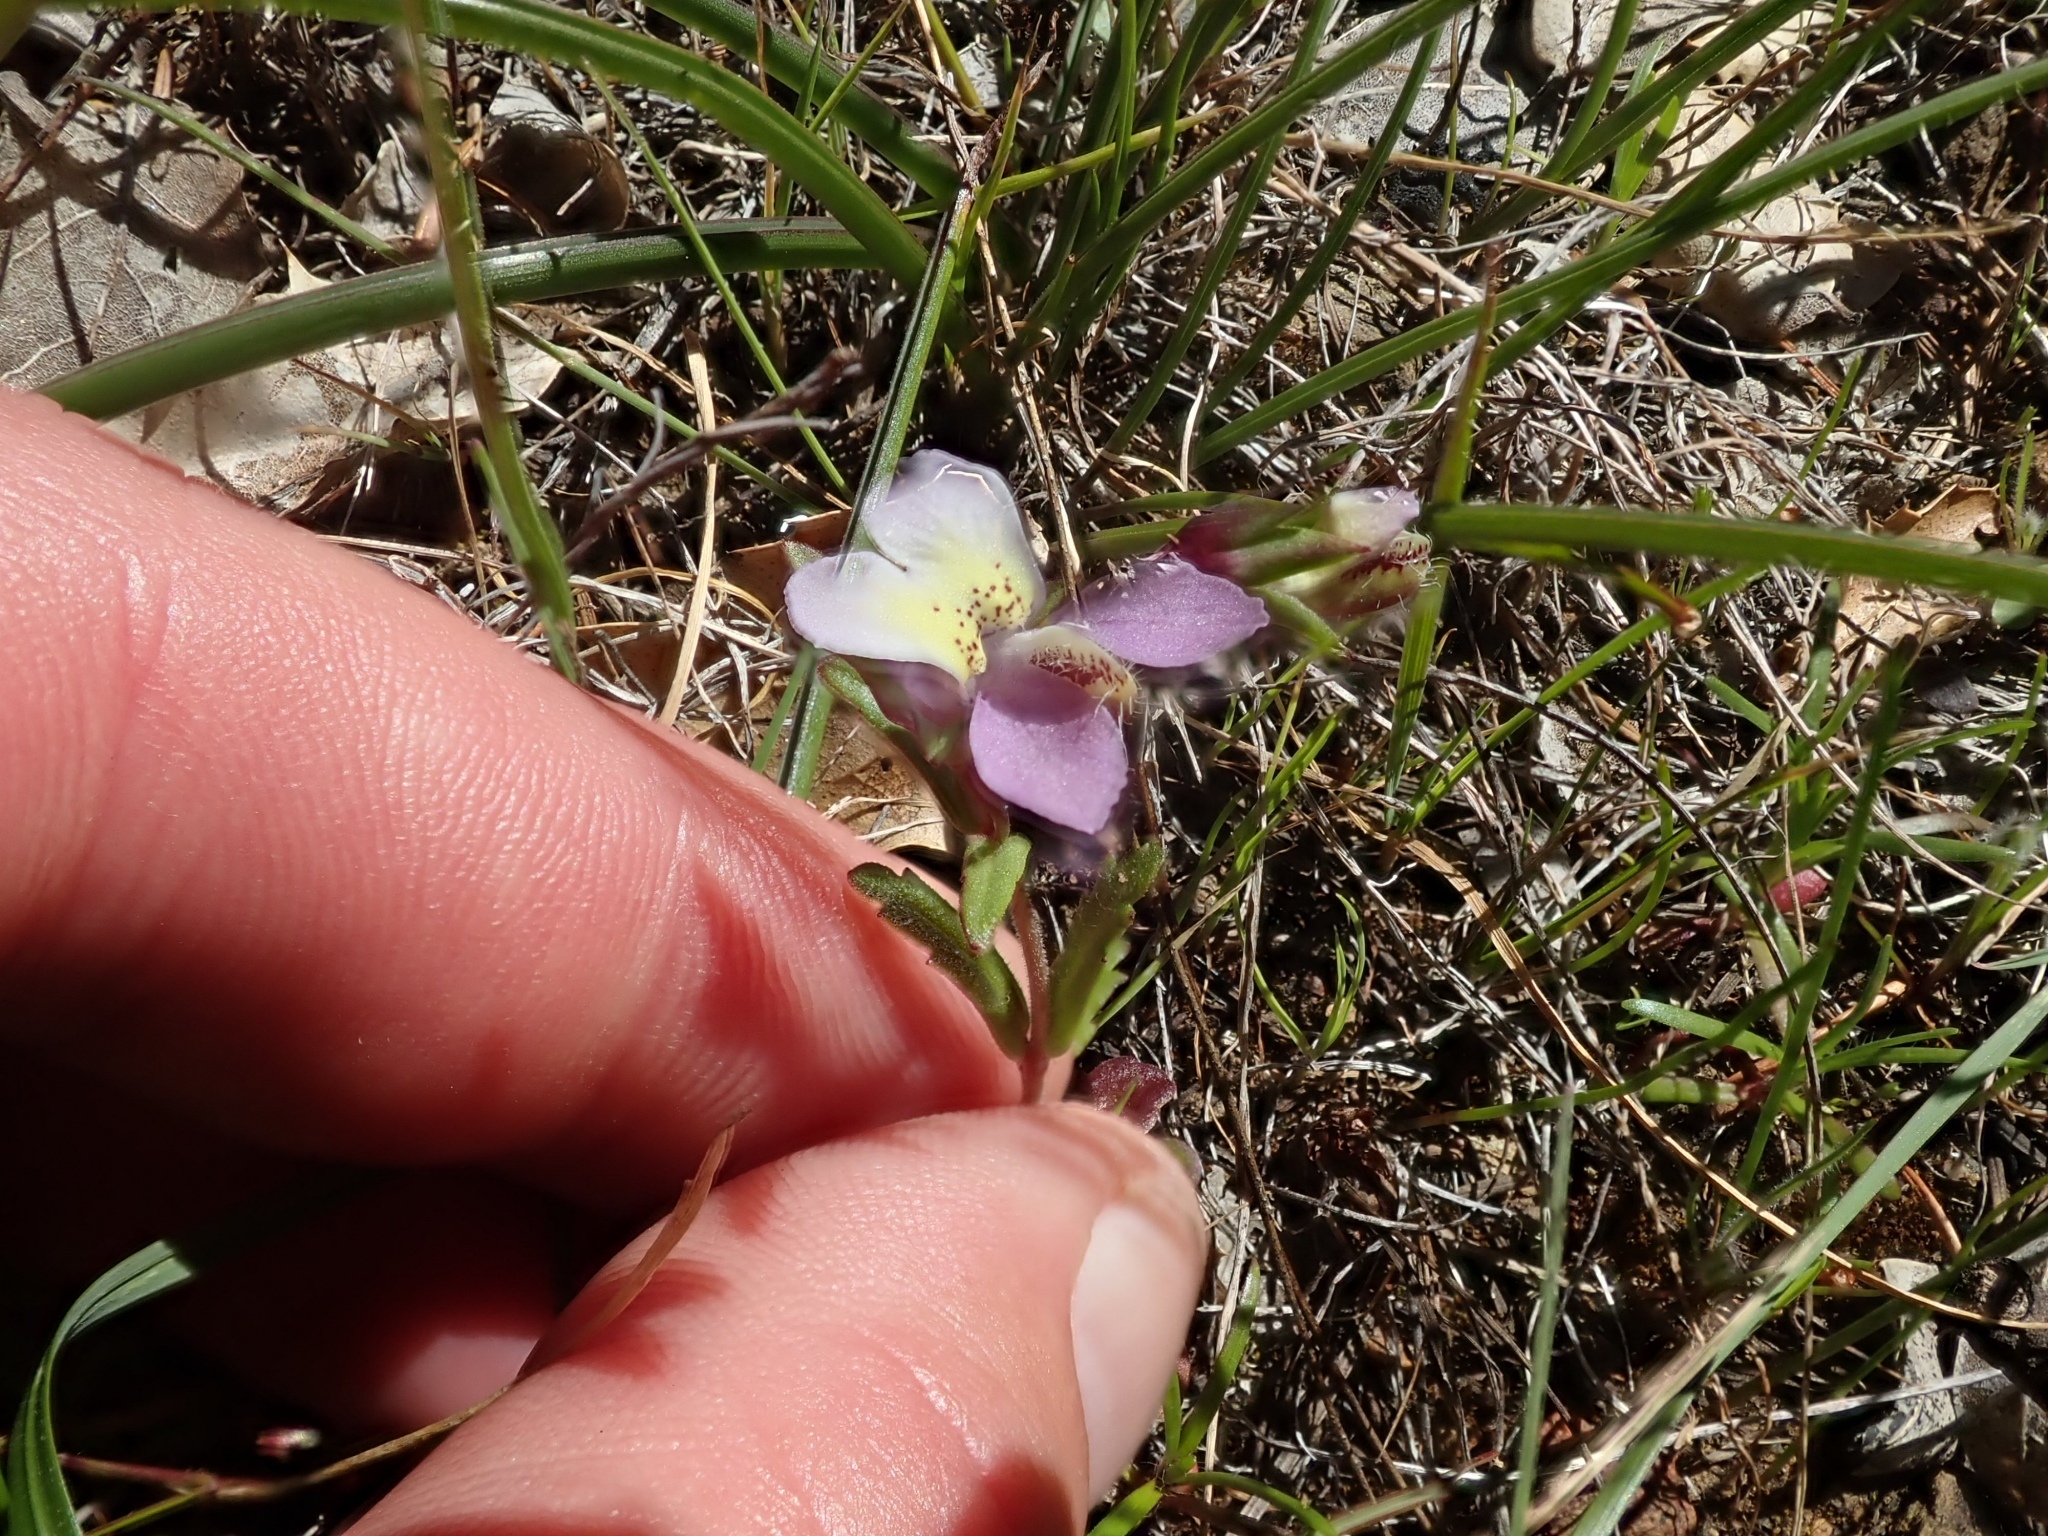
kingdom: Plantae
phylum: Tracheophyta
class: Magnoliopsida
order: Lamiales
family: Plantaginaceae
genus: Collinsia
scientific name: Collinsia sparsiflora
